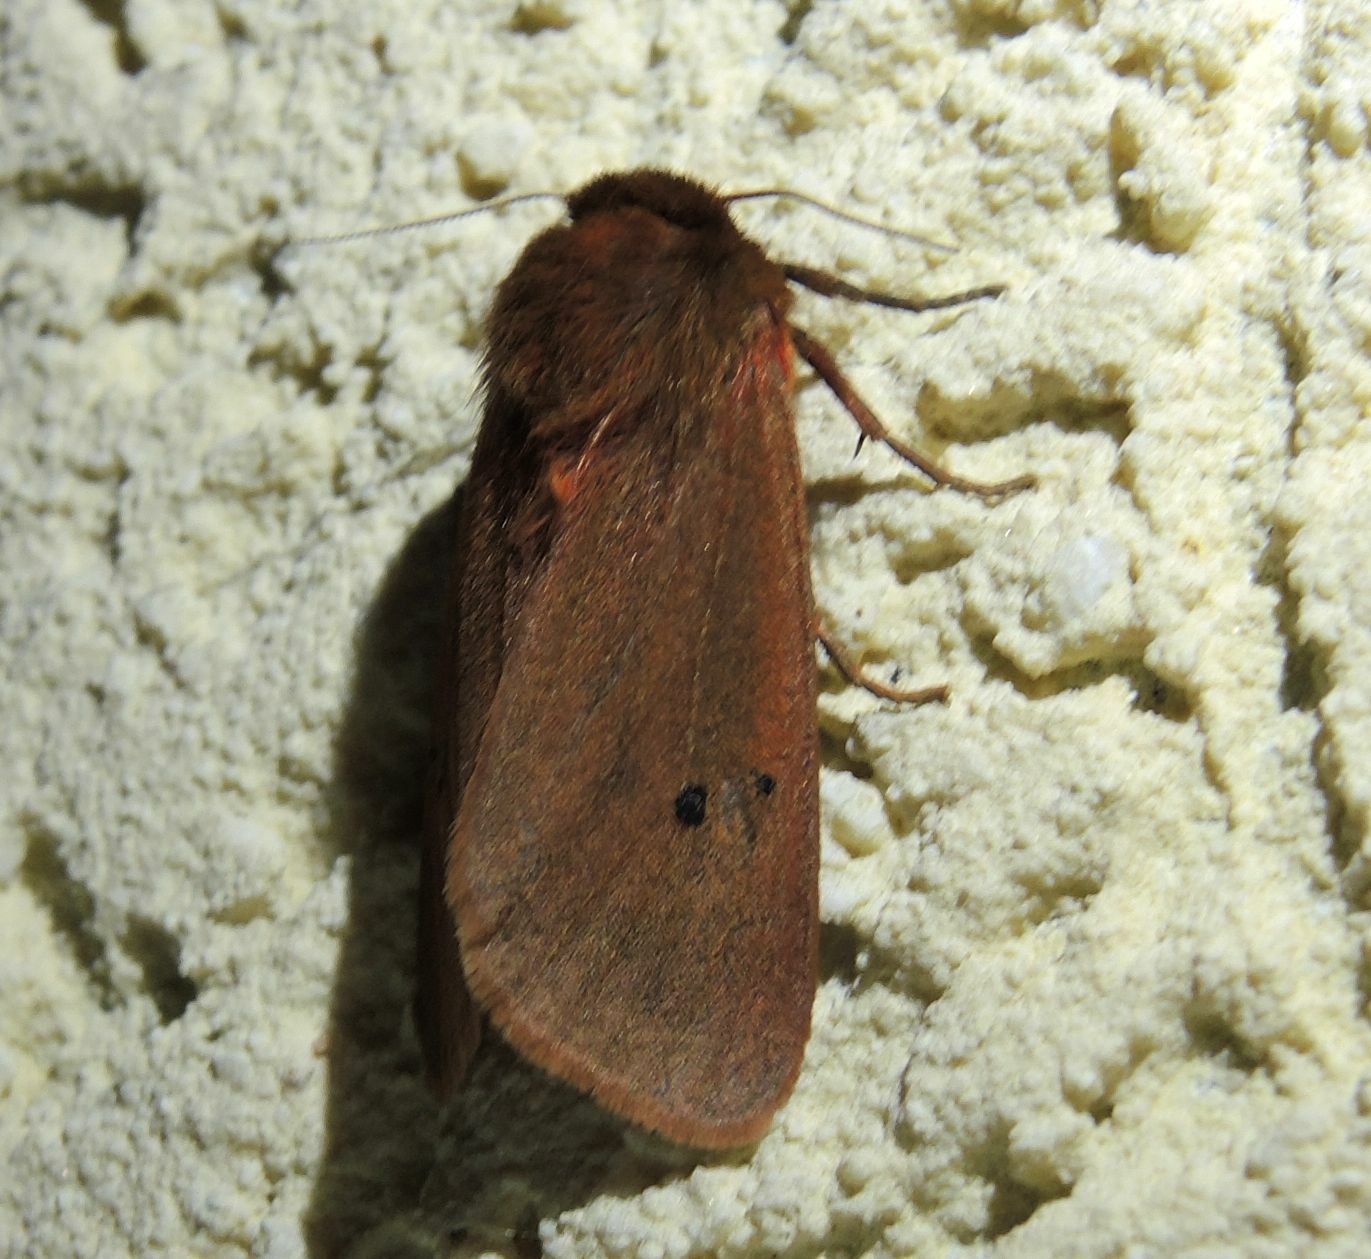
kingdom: Animalia
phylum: Arthropoda
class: Insecta
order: Lepidoptera
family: Erebidae
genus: Phragmatobia
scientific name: Phragmatobia fuliginosa
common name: Ruby tiger
